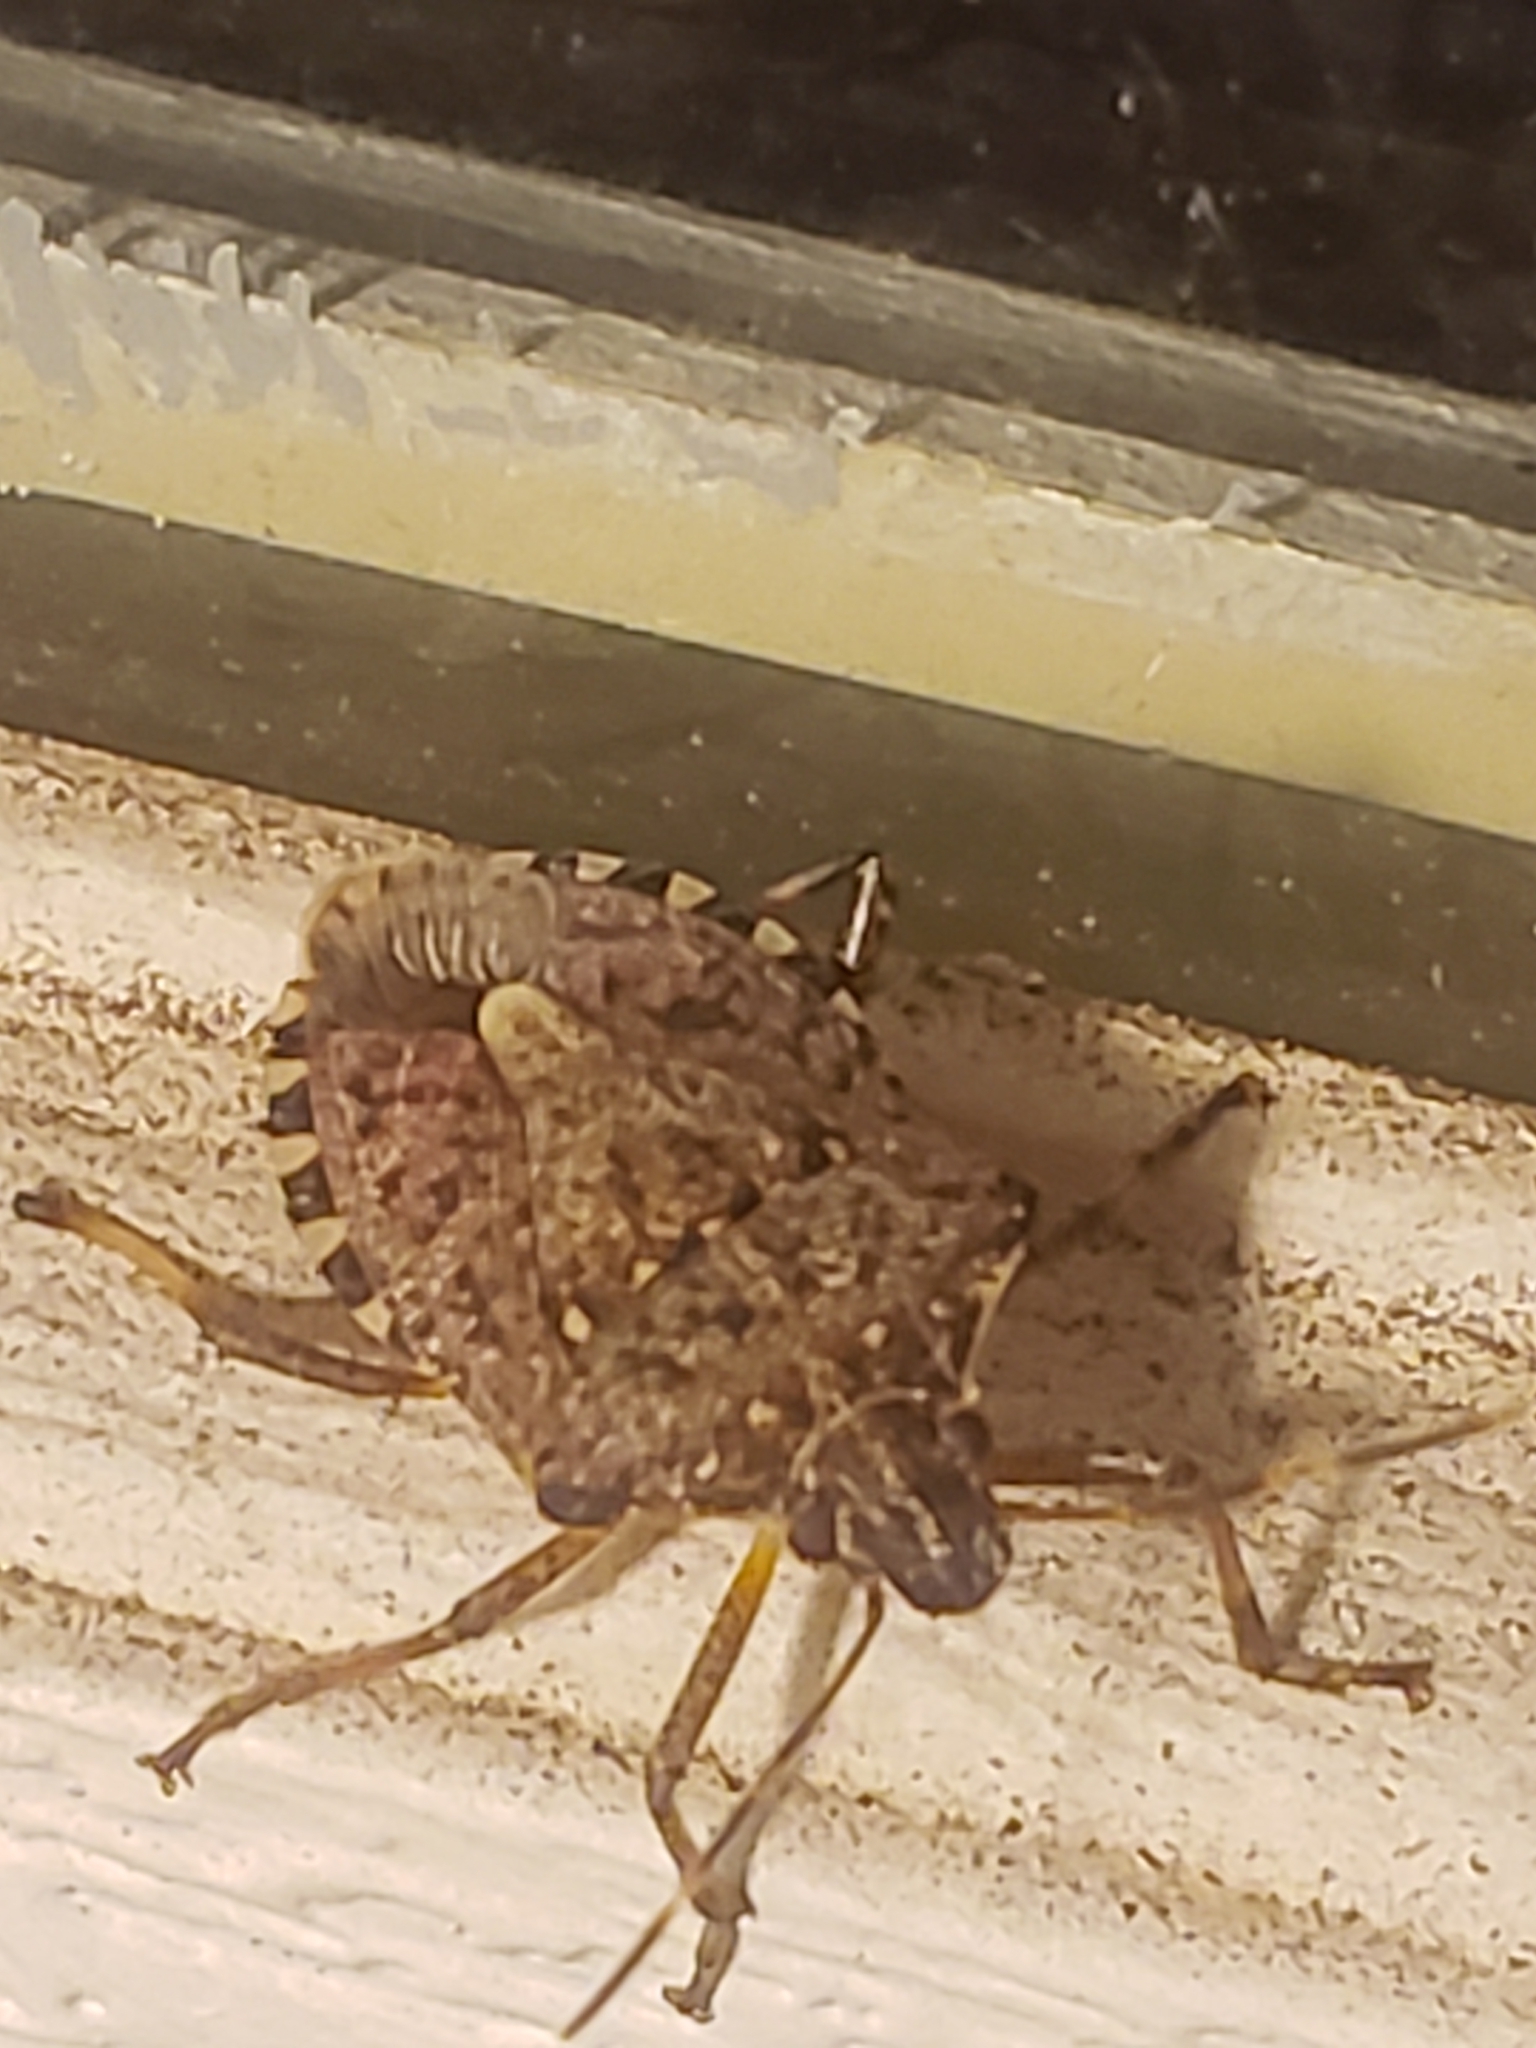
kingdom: Animalia
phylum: Arthropoda
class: Insecta
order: Hemiptera
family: Pentatomidae
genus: Halyomorpha
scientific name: Halyomorpha halys
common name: Brown marmorated stink bug
